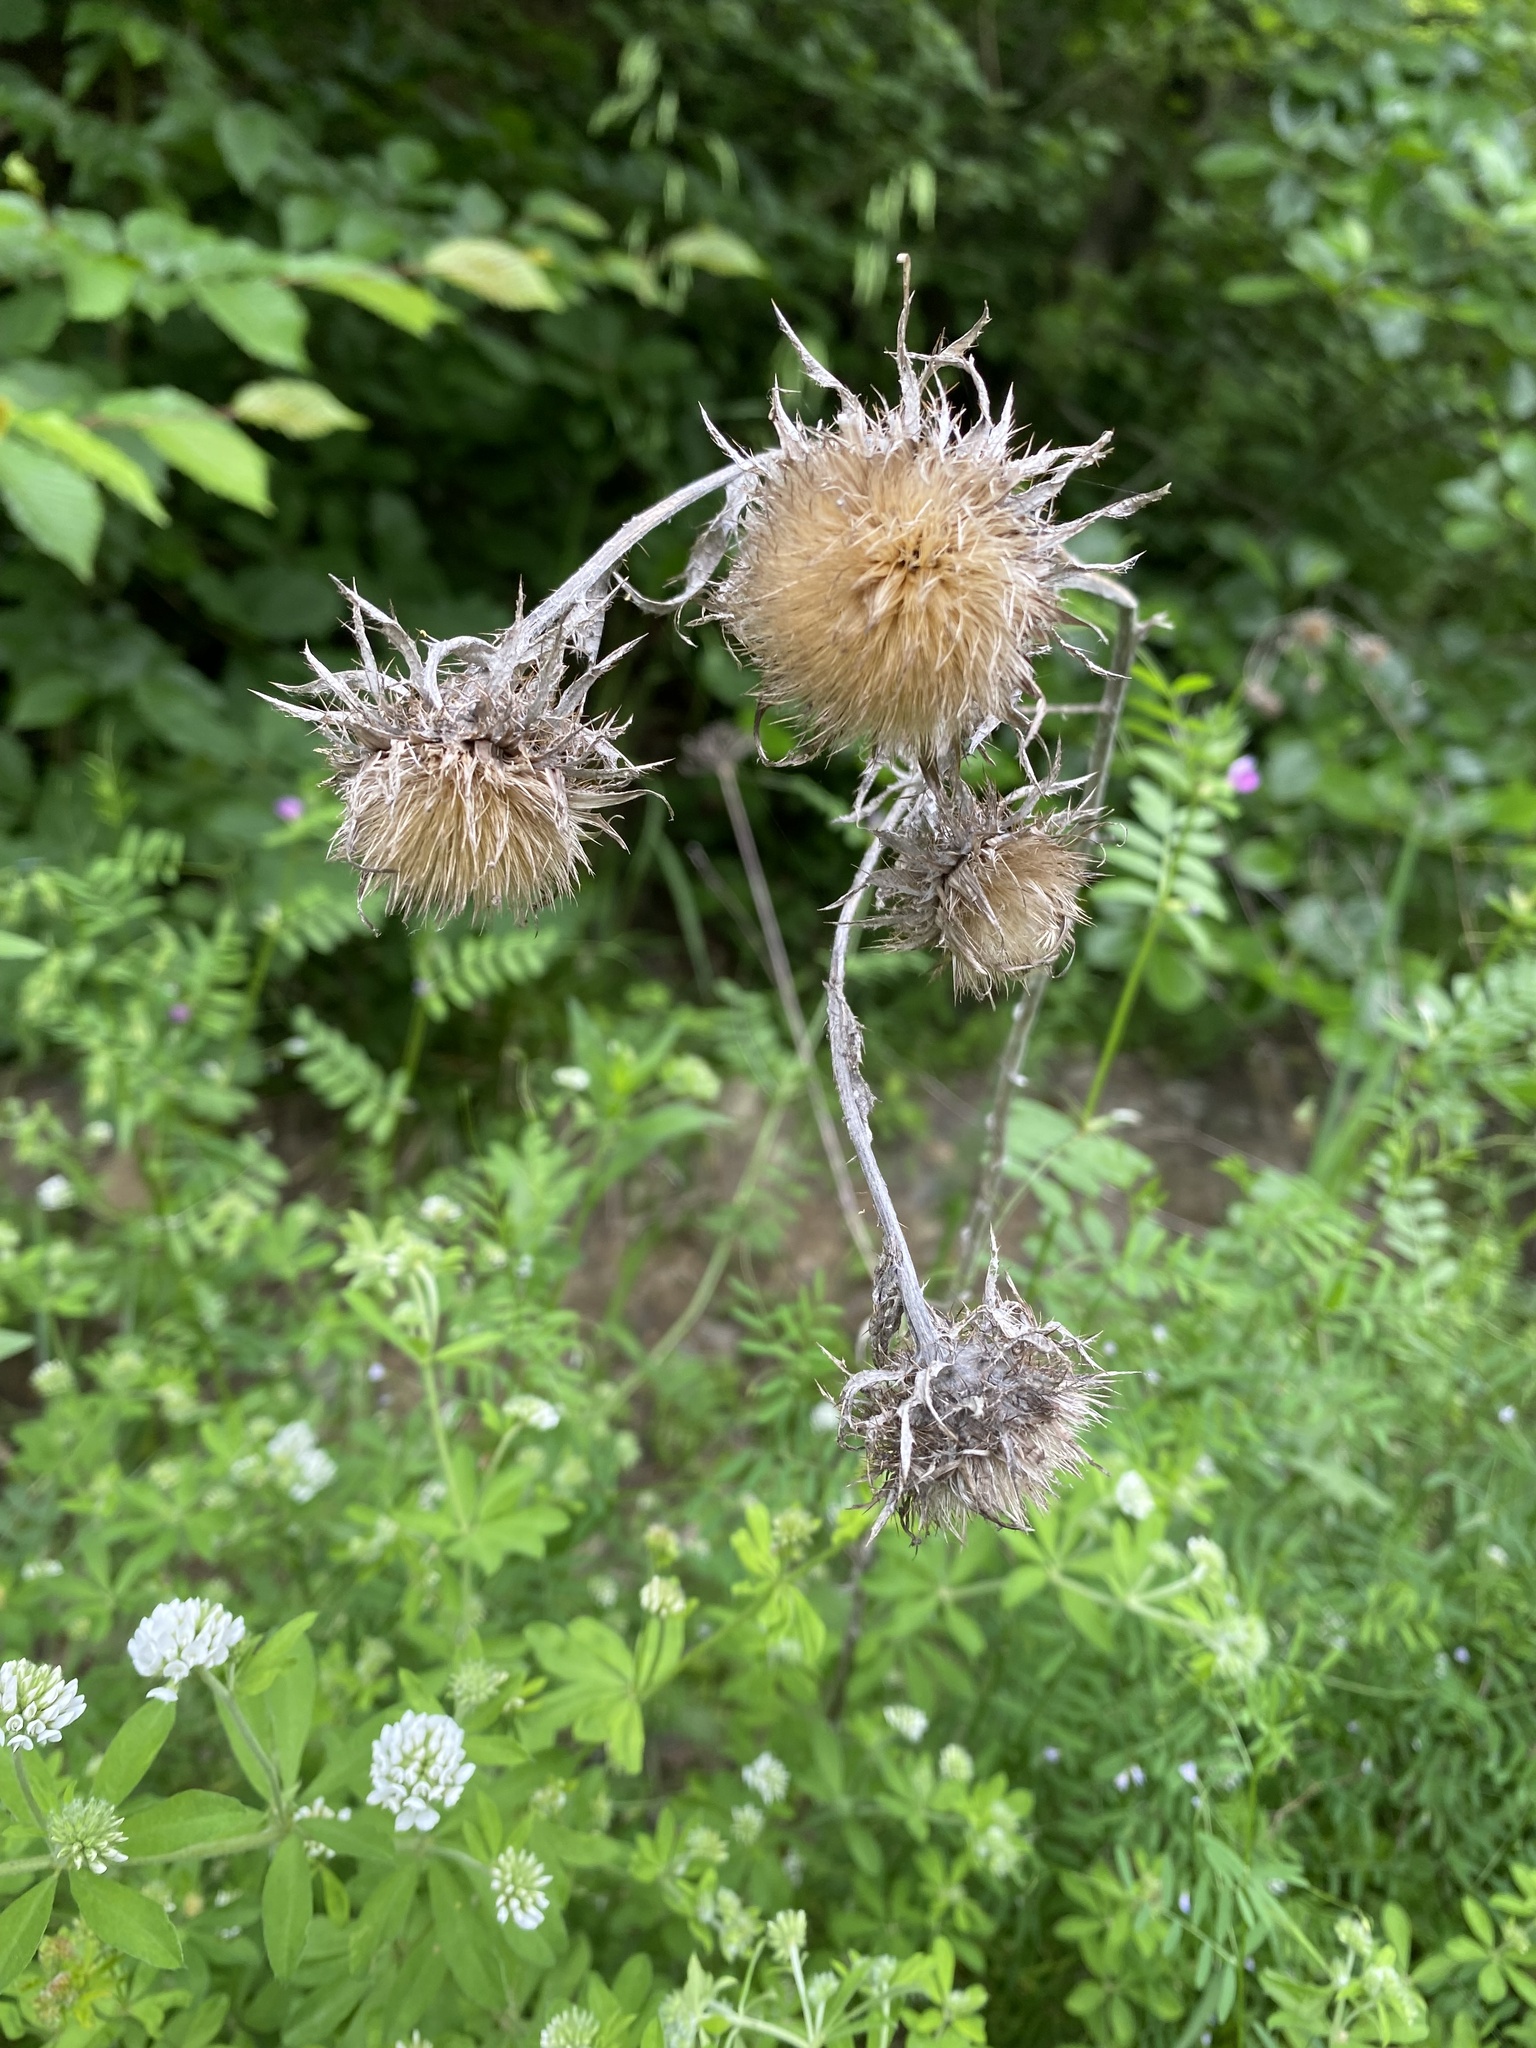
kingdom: Plantae
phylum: Tracheophyta
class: Magnoliopsida
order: Asterales
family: Asteraceae
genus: Carlina
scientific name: Carlina biebersteinii
